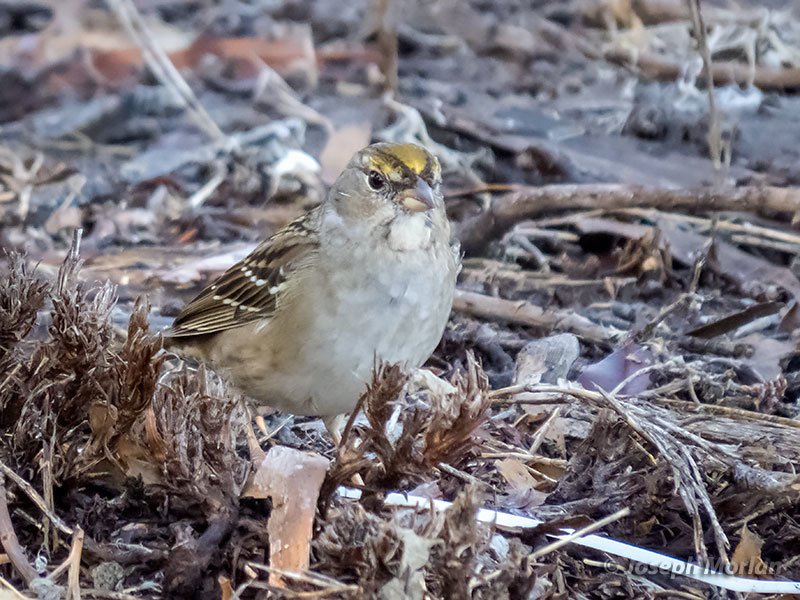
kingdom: Animalia
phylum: Chordata
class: Aves
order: Passeriformes
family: Passerellidae
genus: Zonotrichia
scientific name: Zonotrichia atricapilla
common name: Golden-crowned sparrow
